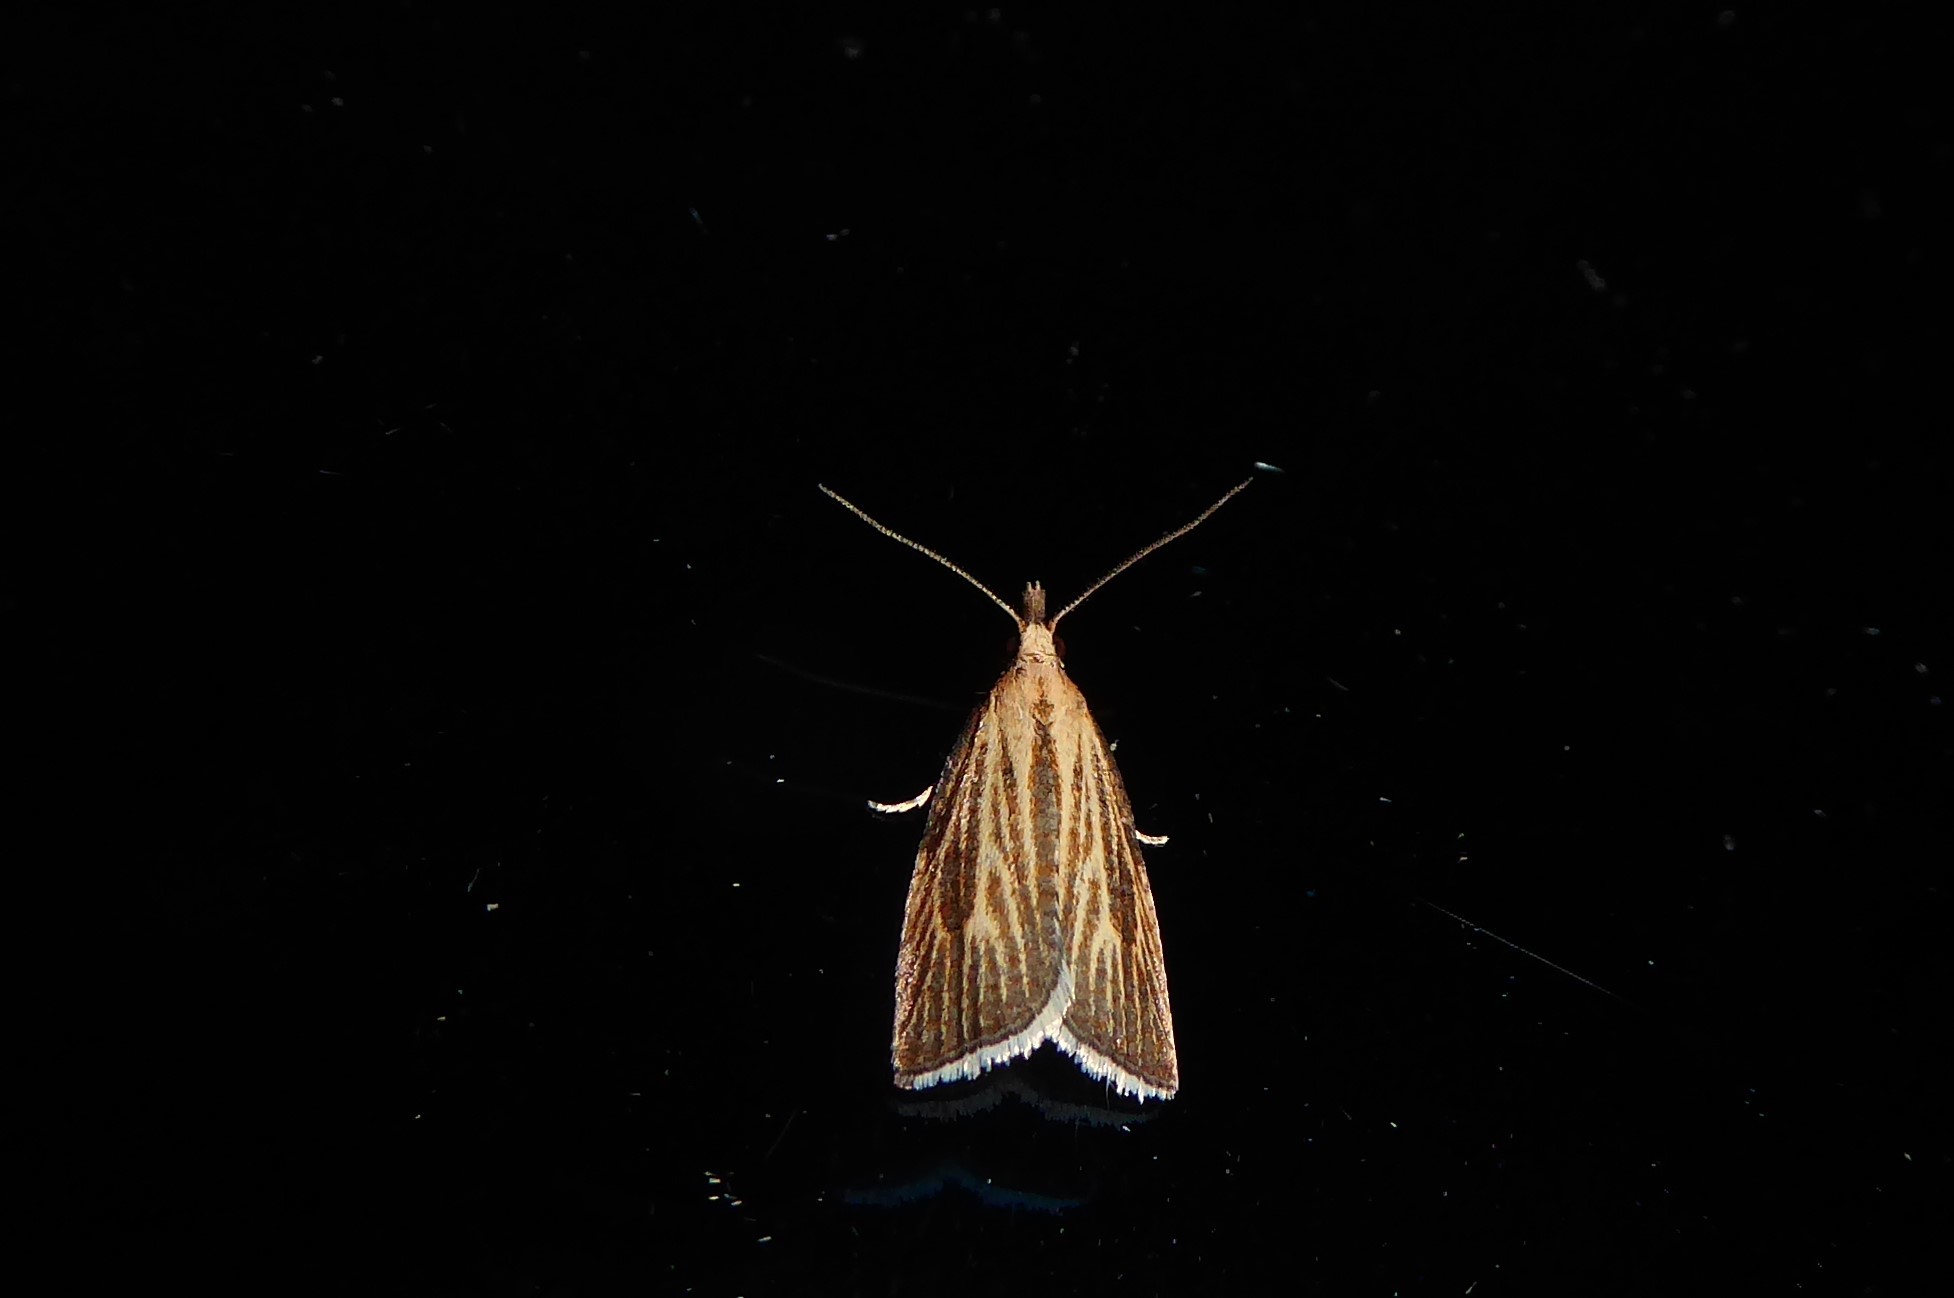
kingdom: Animalia
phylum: Arthropoda
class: Insecta
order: Lepidoptera
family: Tortricidae
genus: Catamacta
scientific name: Catamacta lotinana
